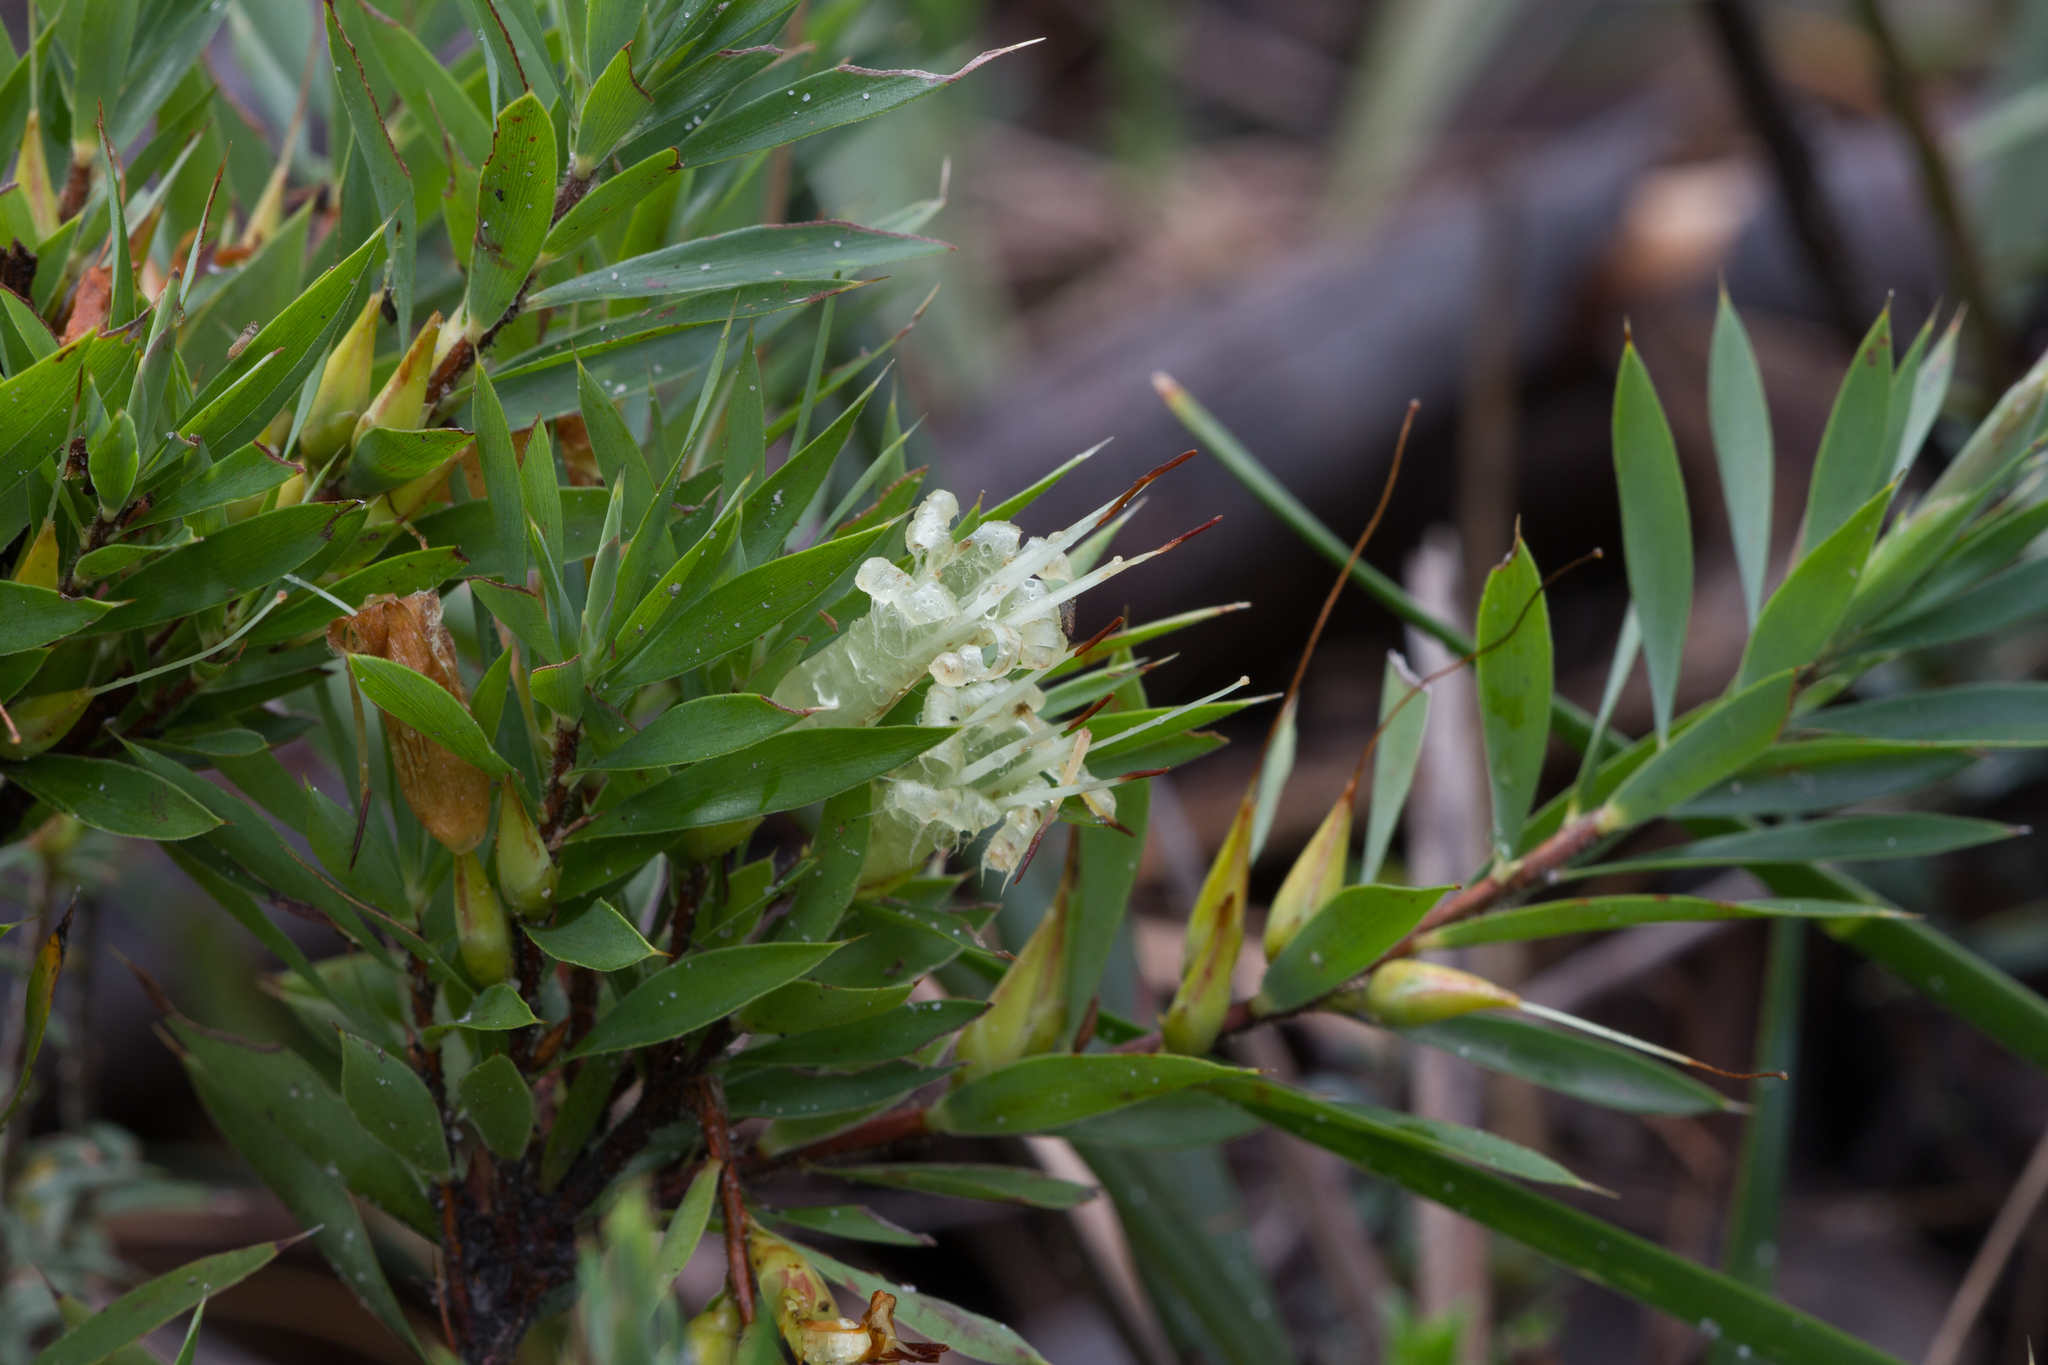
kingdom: Plantae
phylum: Tracheophyta
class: Magnoliopsida
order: Ericales
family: Ericaceae
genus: Styphelia
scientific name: Styphelia adscendens
